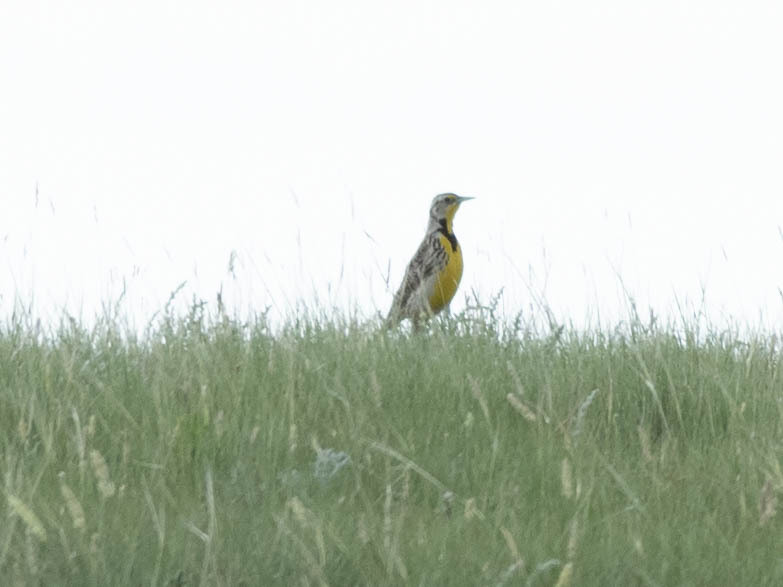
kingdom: Animalia
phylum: Chordata
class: Aves
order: Passeriformes
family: Icteridae
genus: Sturnella
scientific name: Sturnella neglecta
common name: Western meadowlark
